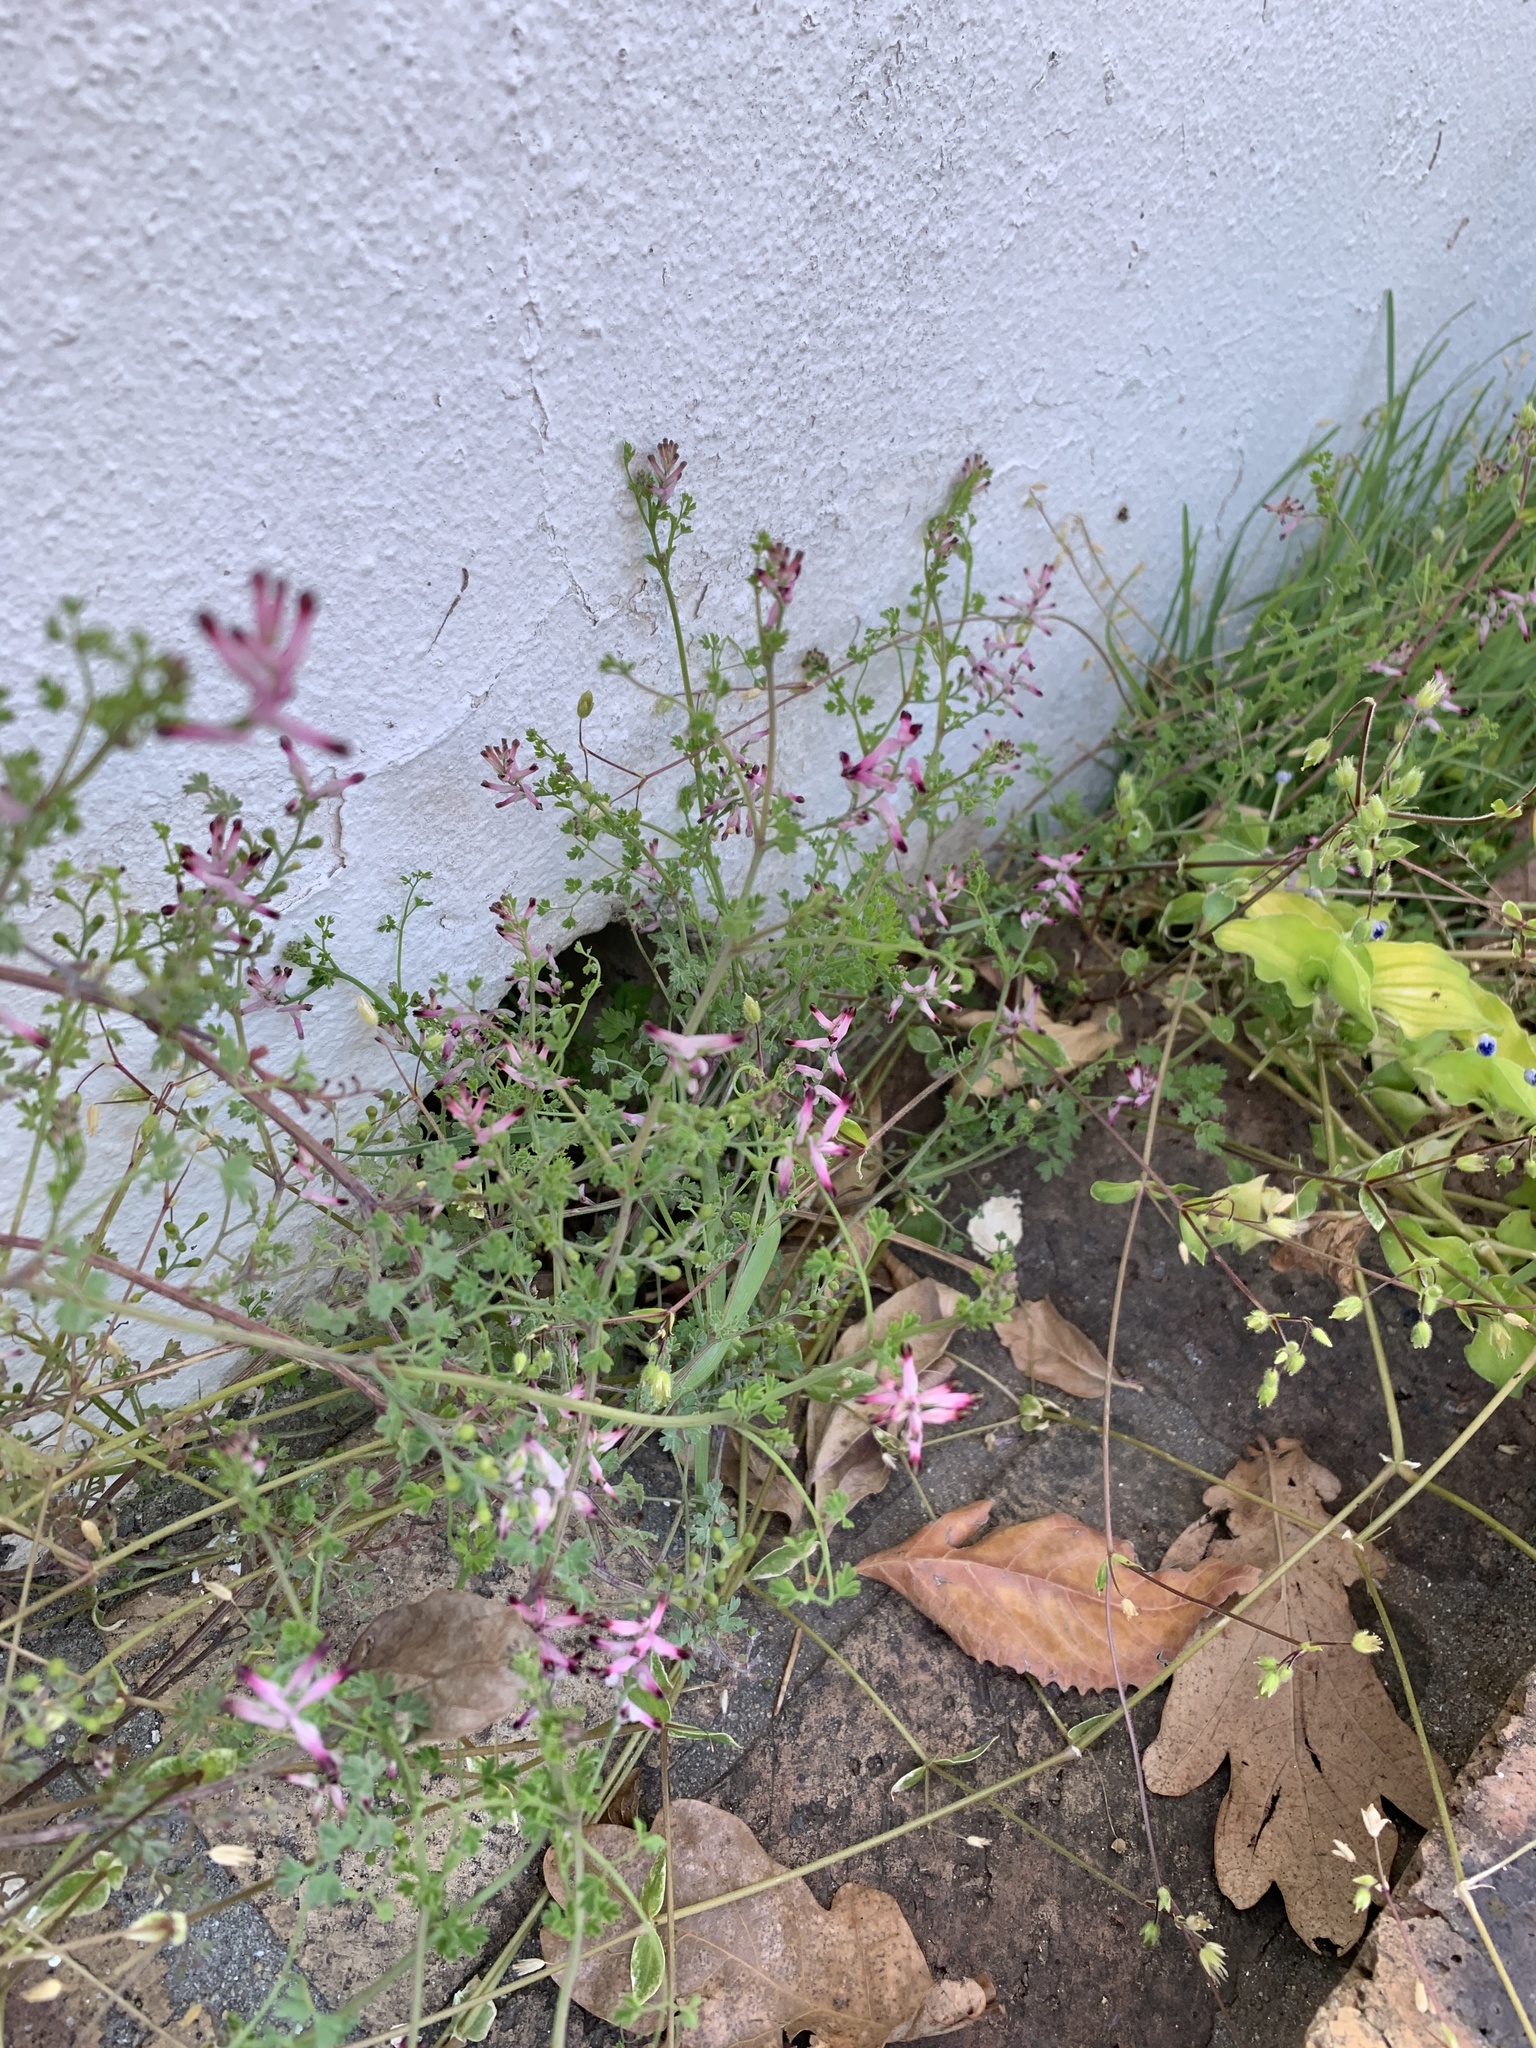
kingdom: Plantae
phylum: Tracheophyta
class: Magnoliopsida
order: Ranunculales
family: Papaveraceae
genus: Fumaria
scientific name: Fumaria muralis
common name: Common ramping-fumitory
